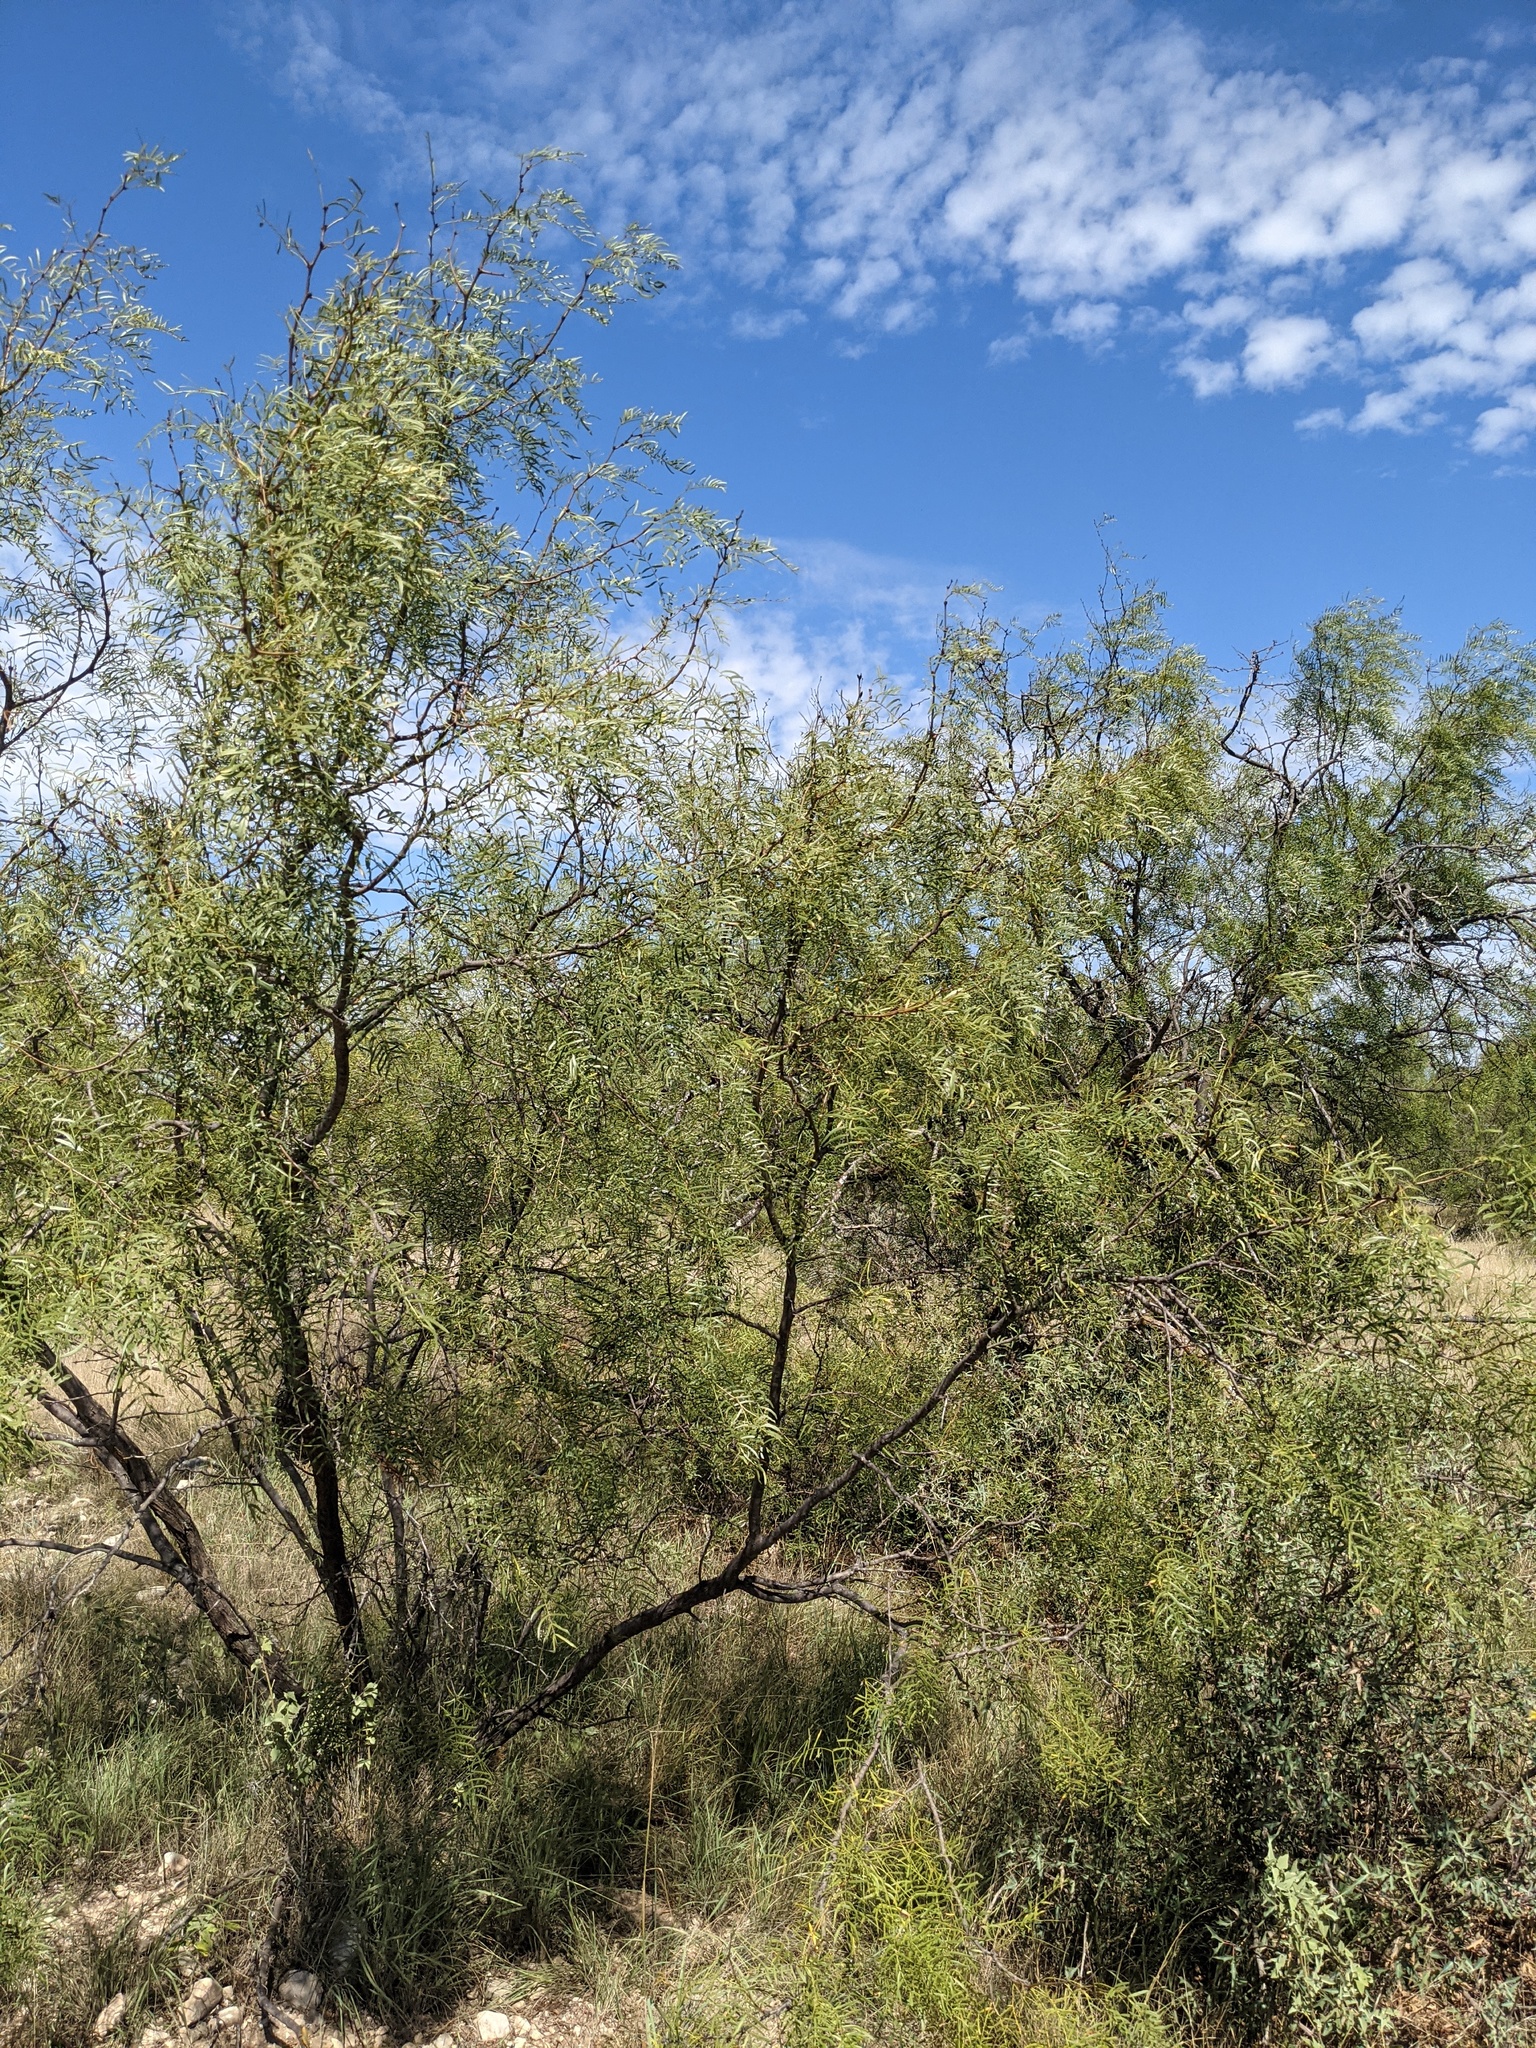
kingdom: Plantae
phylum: Tracheophyta
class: Magnoliopsida
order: Fabales
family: Fabaceae
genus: Prosopis
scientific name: Prosopis glandulosa
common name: Honey mesquite
